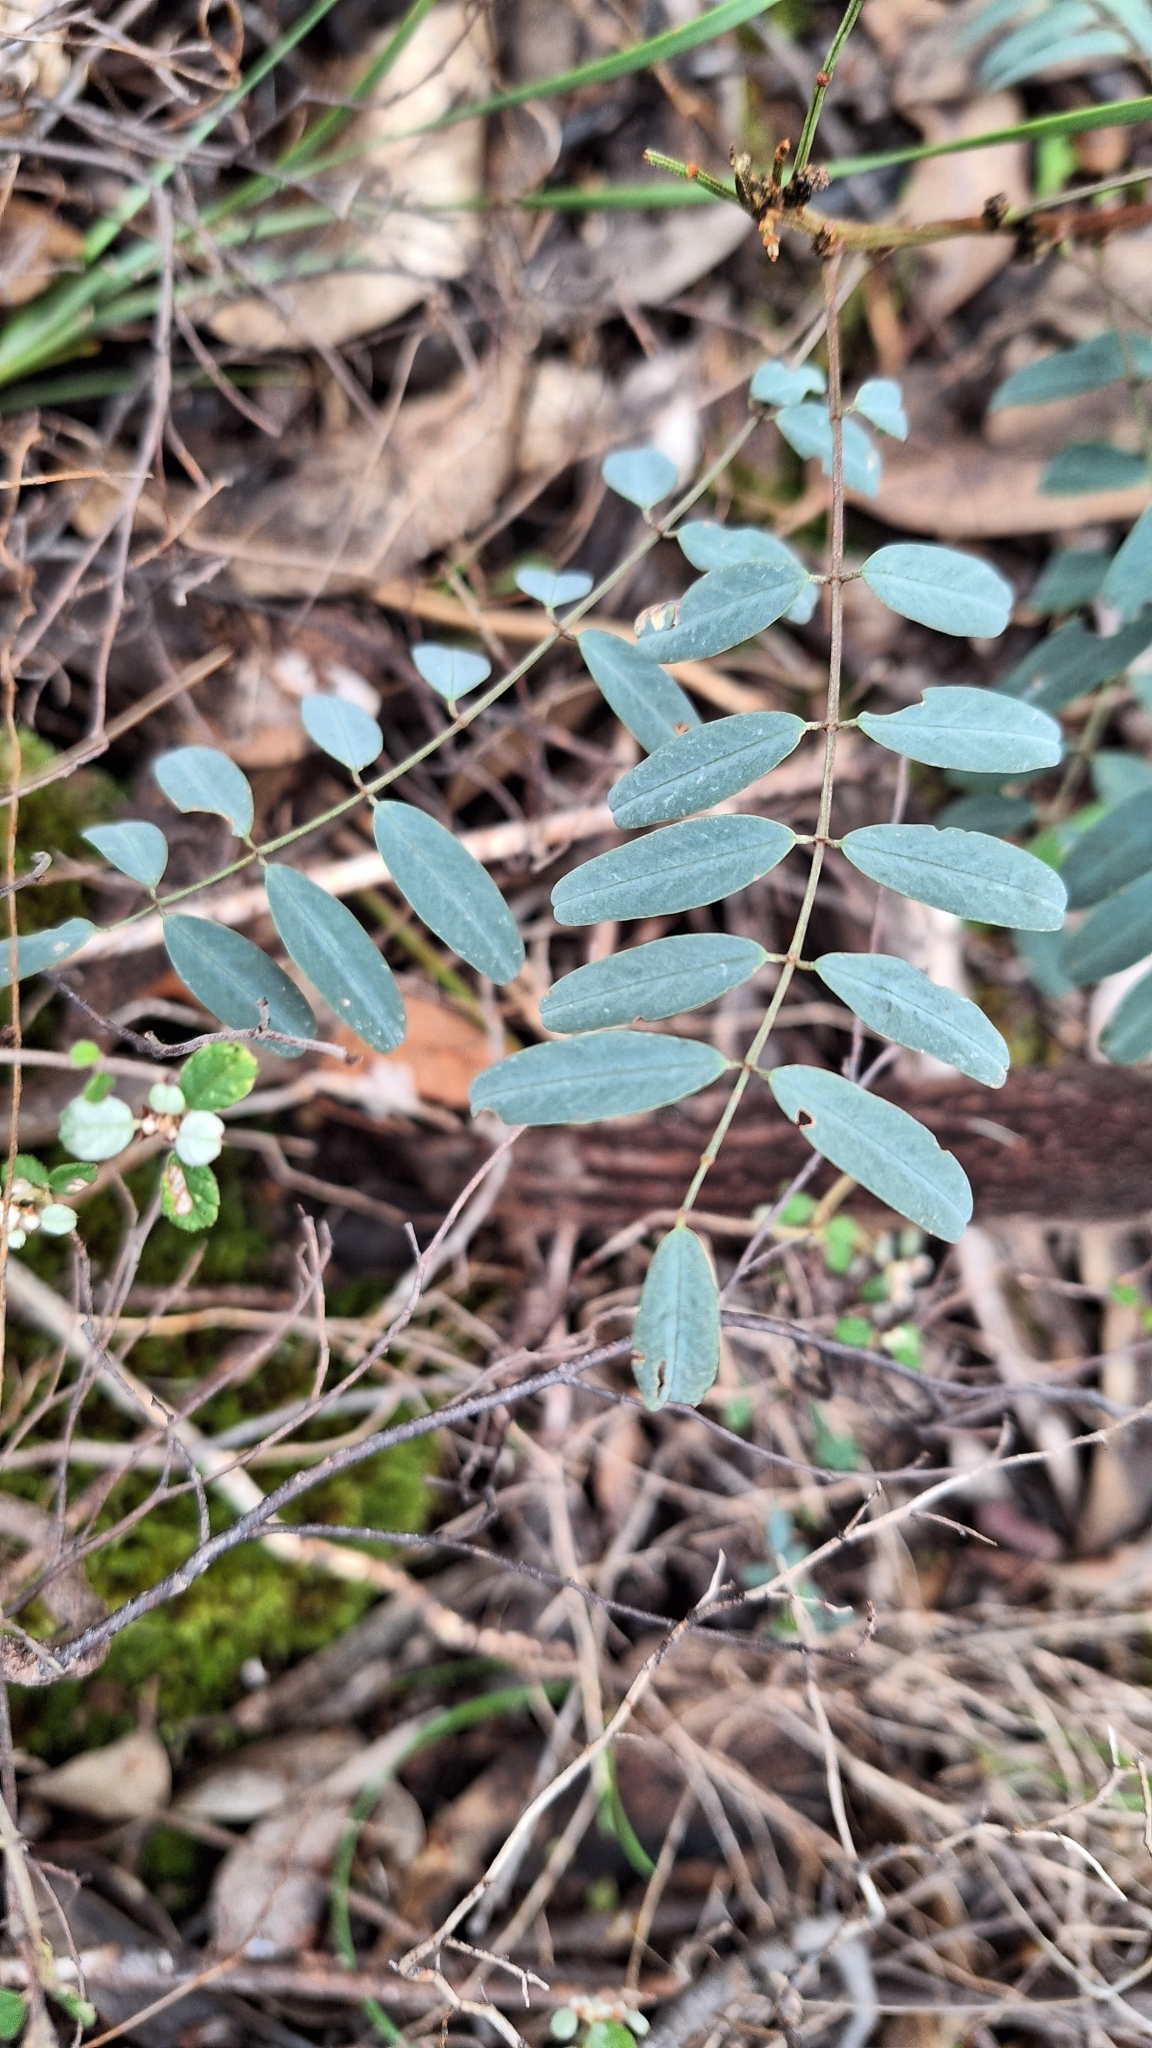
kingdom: Plantae
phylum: Tracheophyta
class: Magnoliopsida
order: Fabales
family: Fabaceae
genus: Indigofera
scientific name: Indigofera australis
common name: Australian indigo
